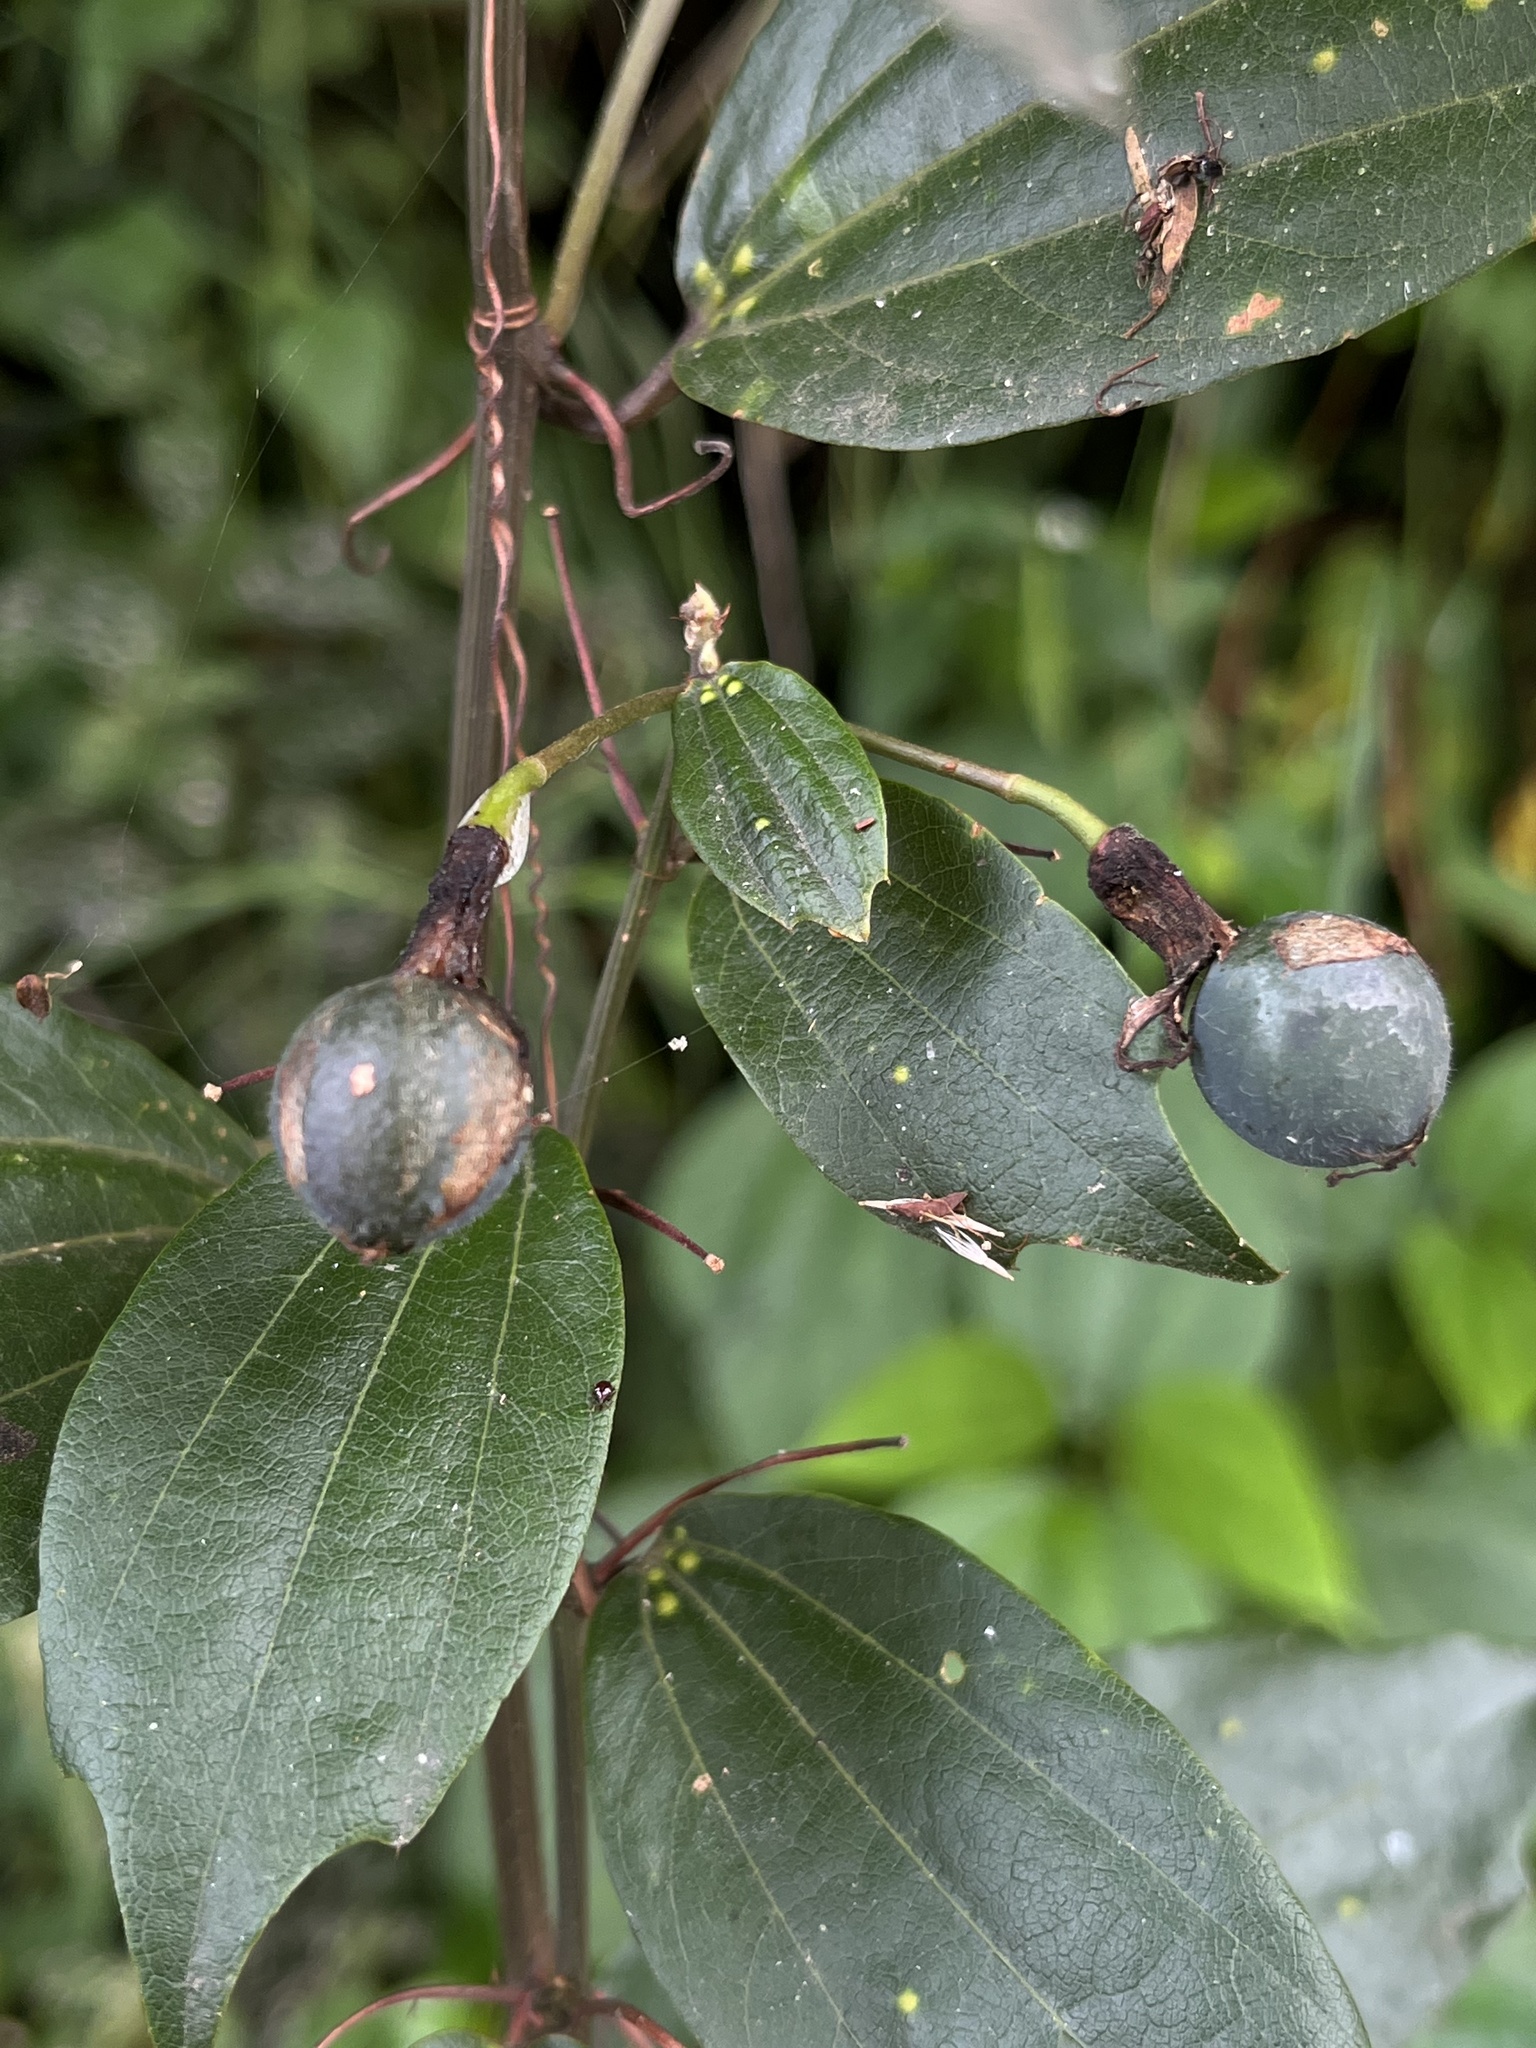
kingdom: Plantae
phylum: Tracheophyta
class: Magnoliopsida
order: Malpighiales
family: Passifloraceae
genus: Passiflora
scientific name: Passiflora cuspidifolia
